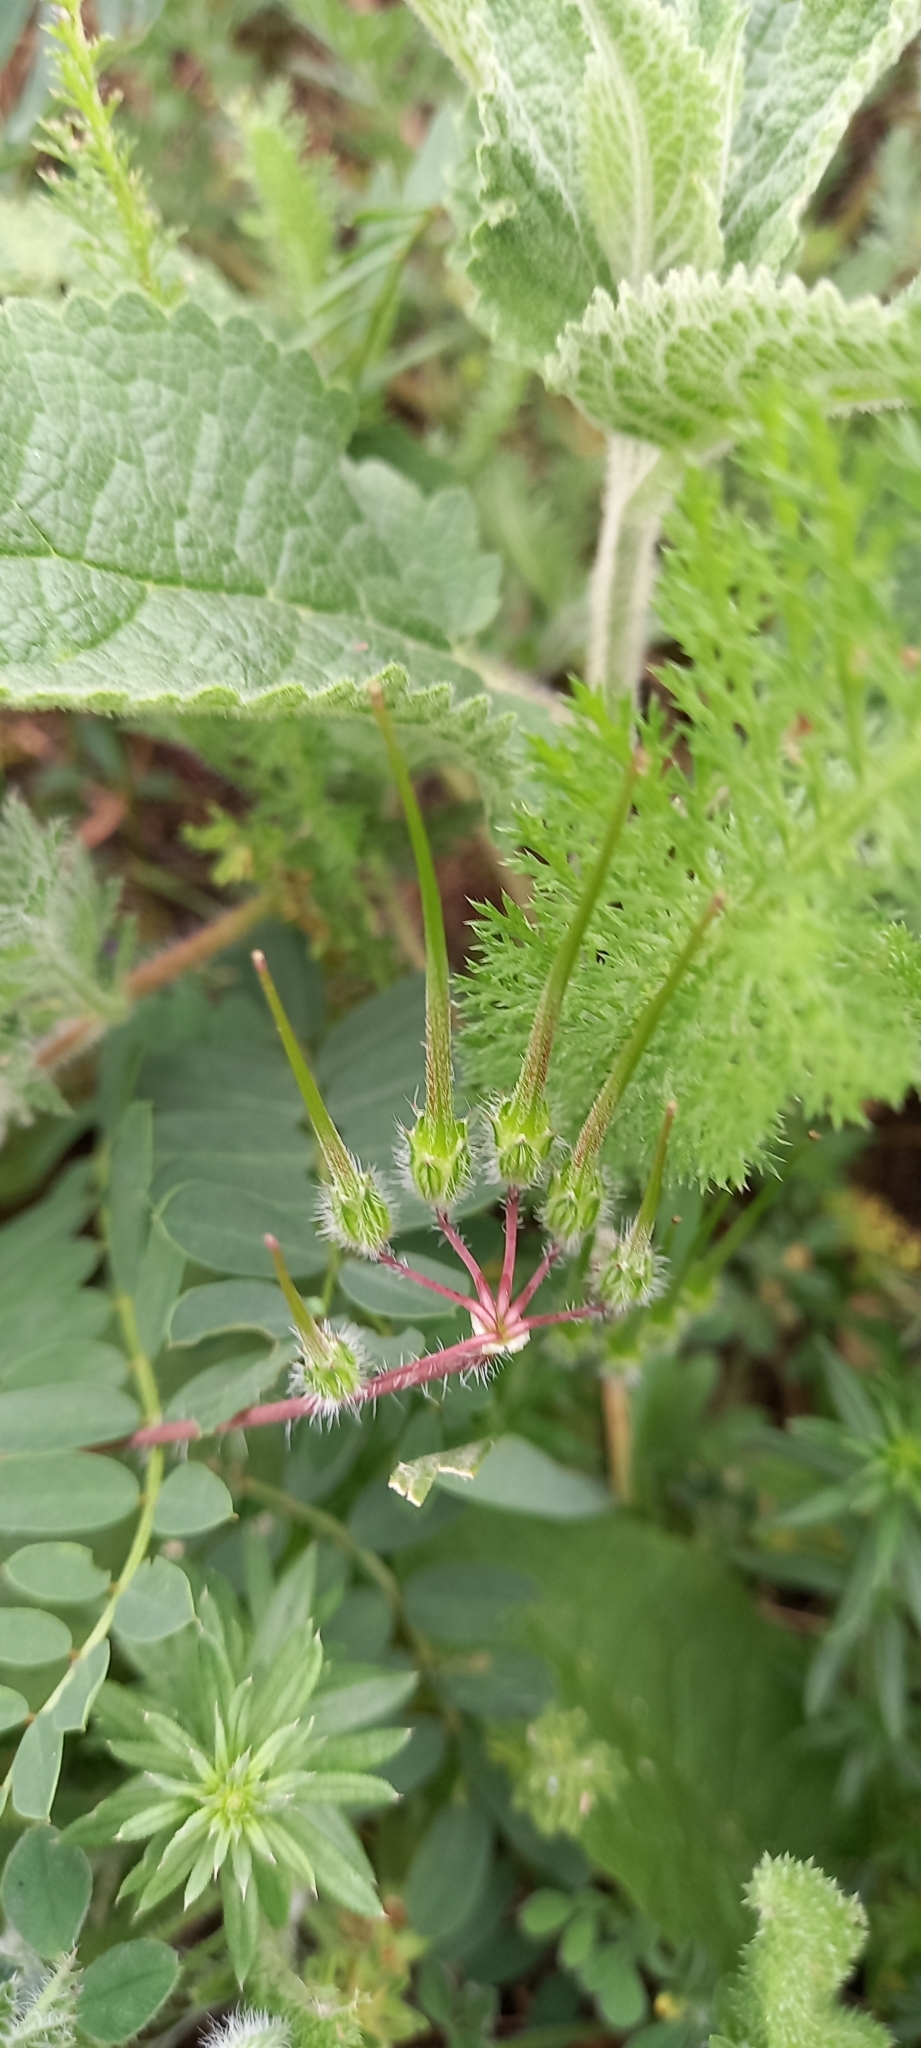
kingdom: Plantae
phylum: Tracheophyta
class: Magnoliopsida
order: Geraniales
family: Geraniaceae
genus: Erodium
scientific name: Erodium cicutarium
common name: Common stork's-bill
